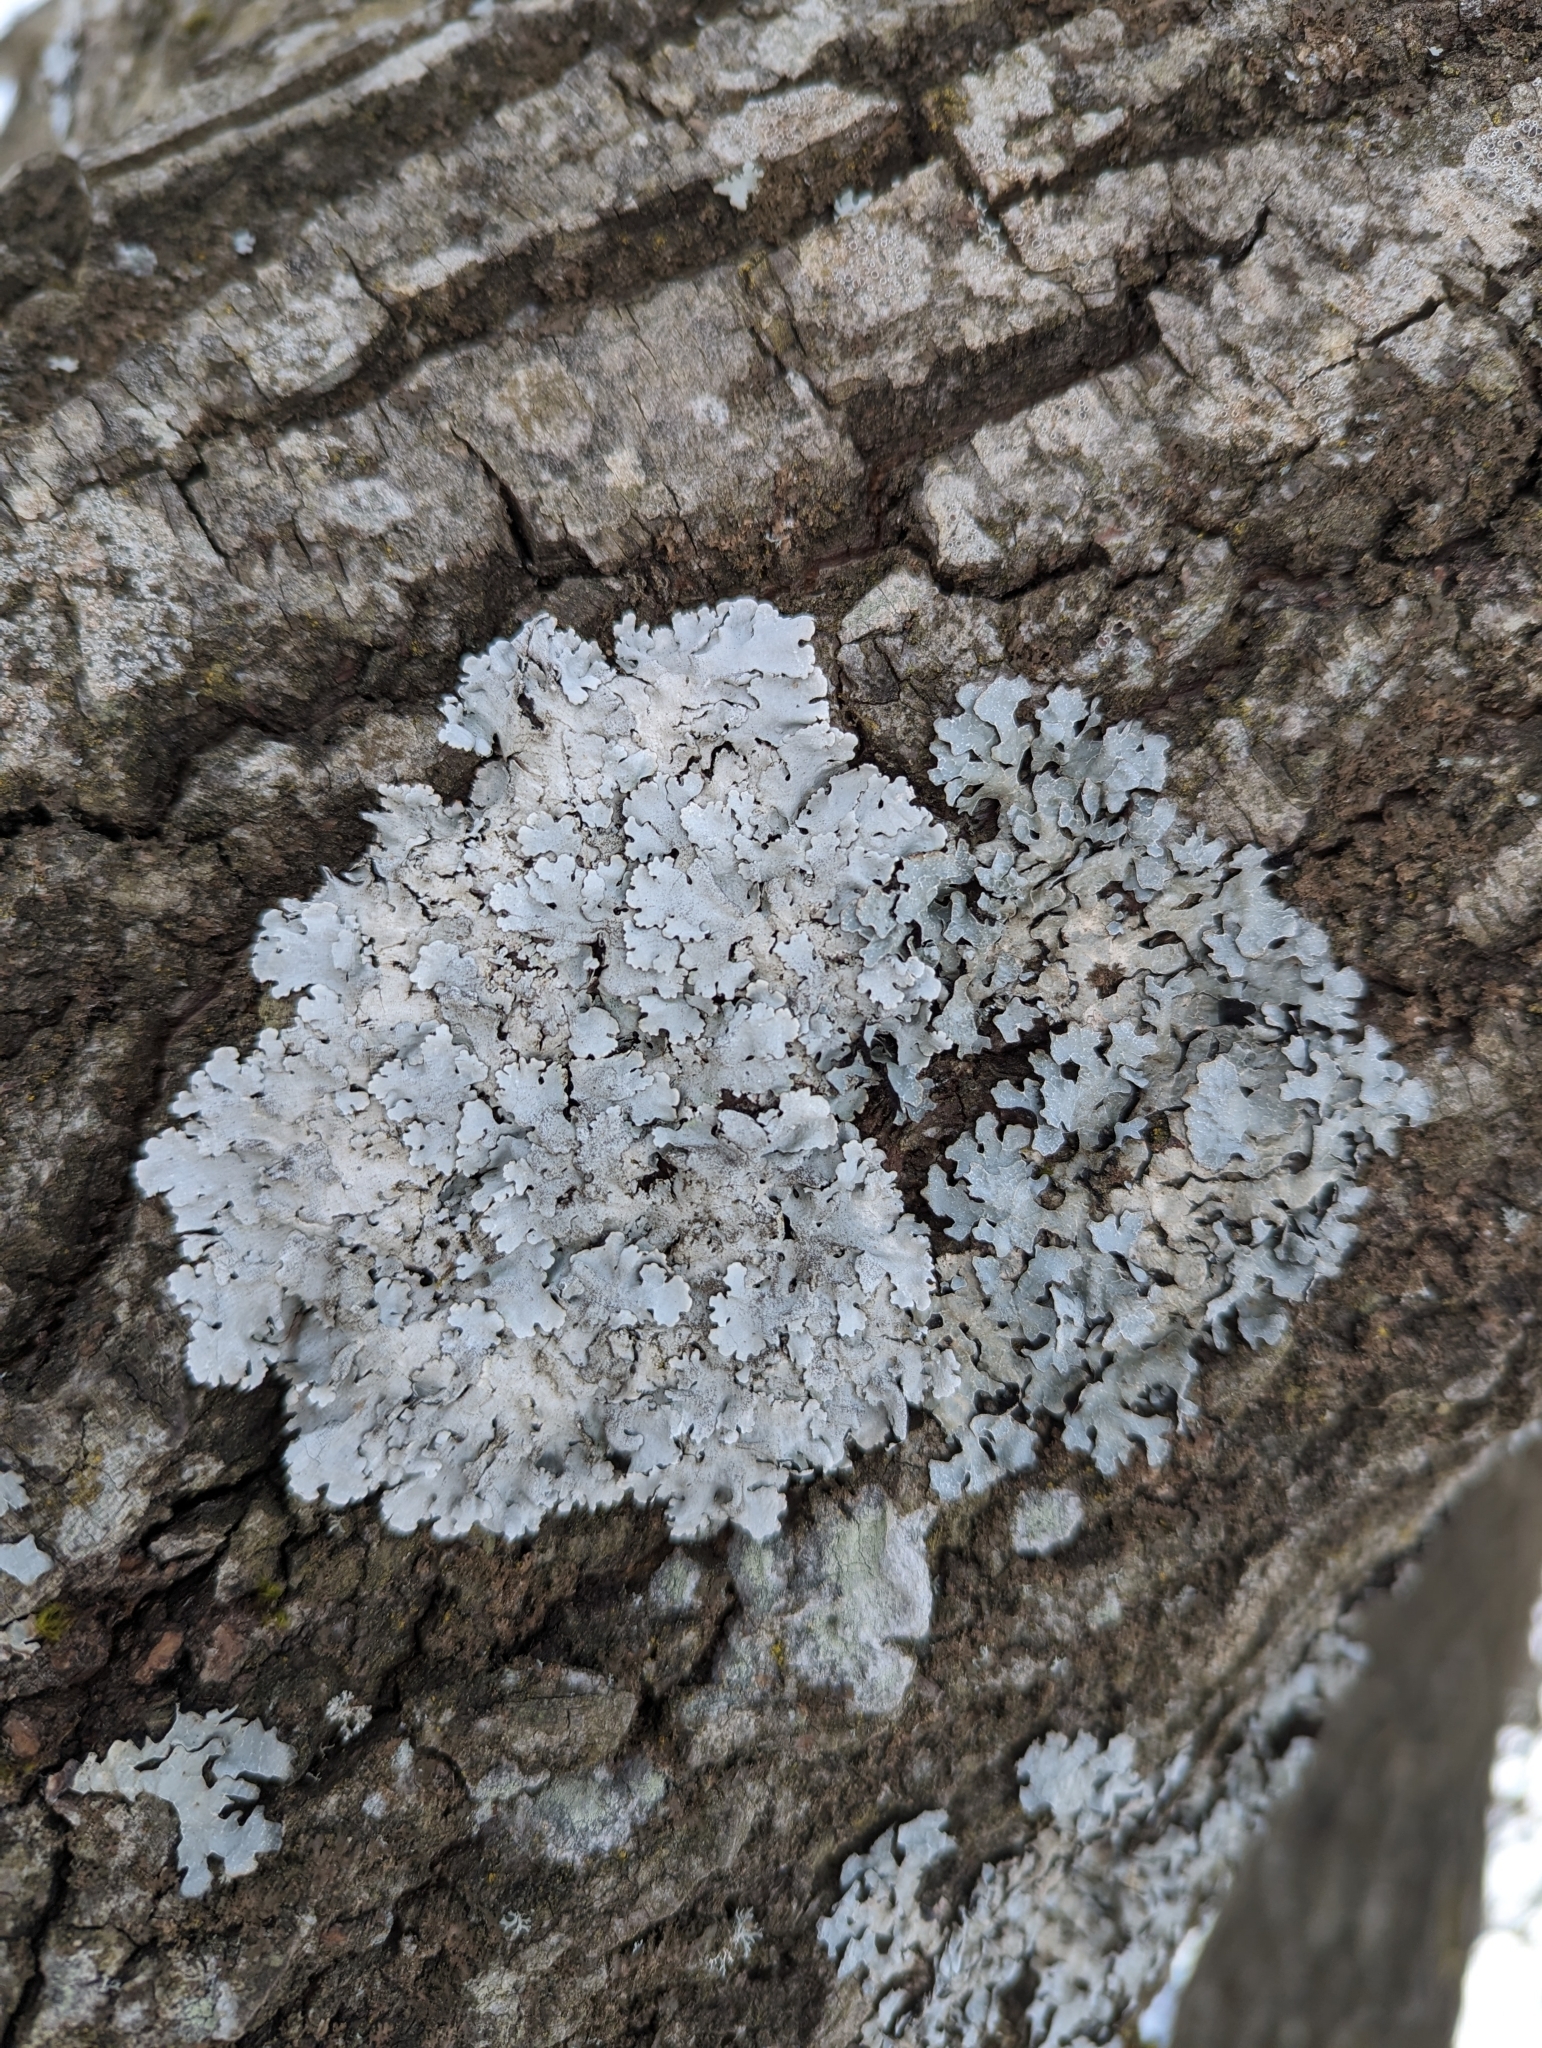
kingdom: Fungi
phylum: Ascomycota
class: Lecanoromycetes
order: Lecanorales
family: Parmeliaceae
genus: Parmelia
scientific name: Parmelia sulcata
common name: Netted shield lichen
